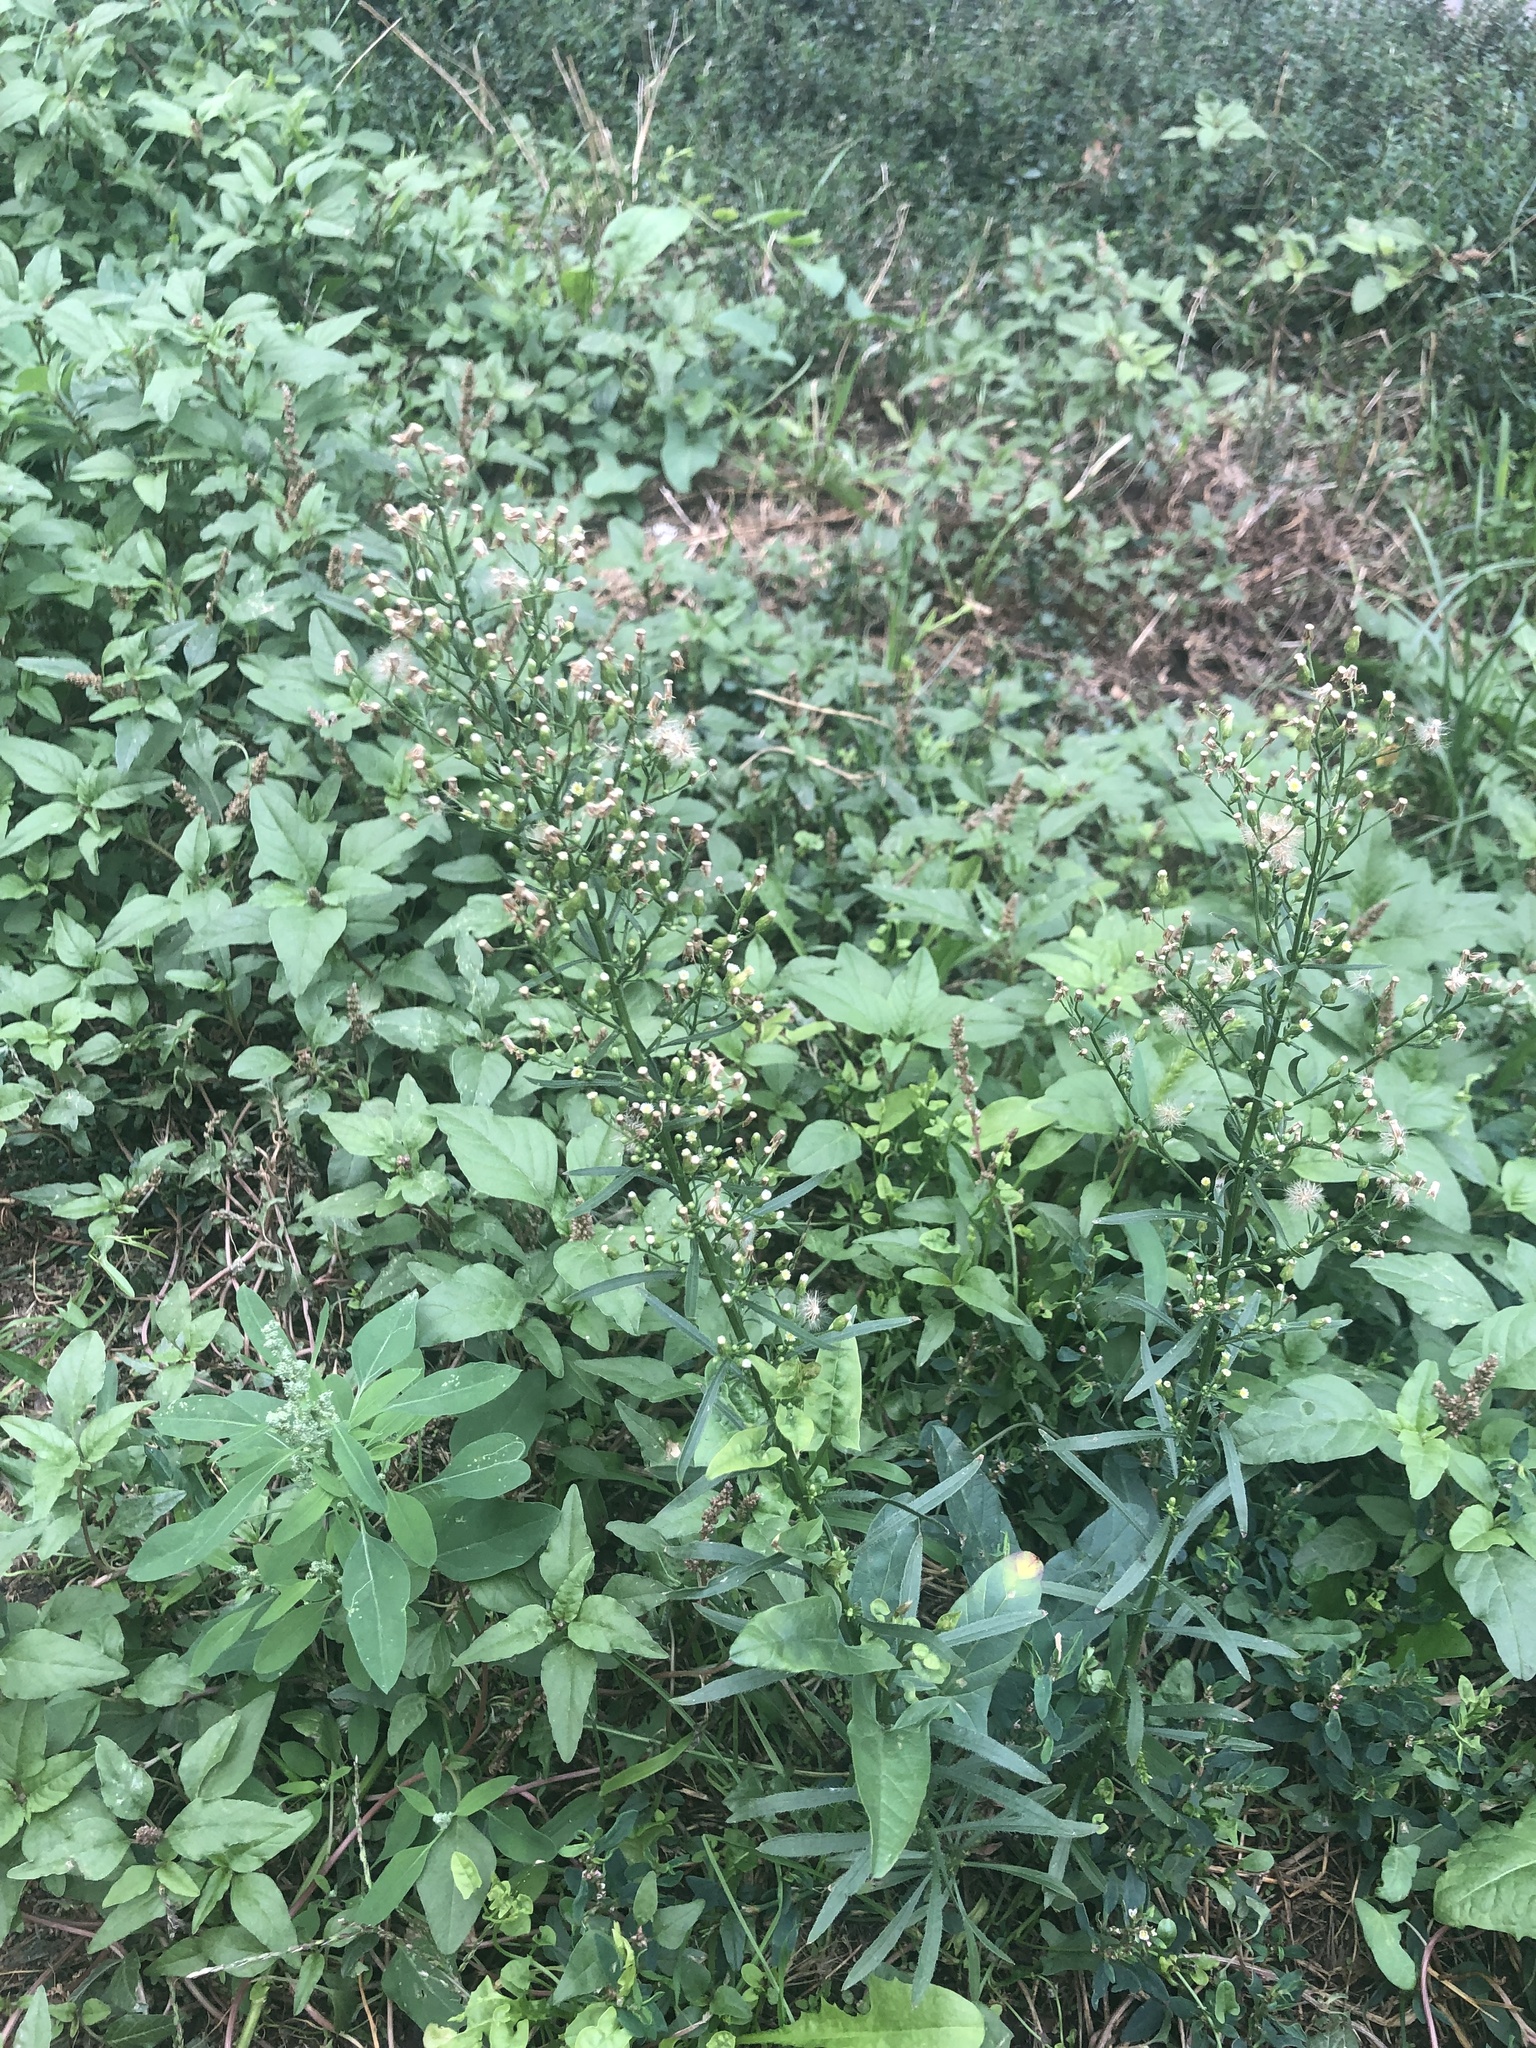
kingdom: Plantae
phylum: Tracheophyta
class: Magnoliopsida
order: Asterales
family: Asteraceae
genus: Erigeron
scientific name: Erigeron canadensis
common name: Canadian fleabane
